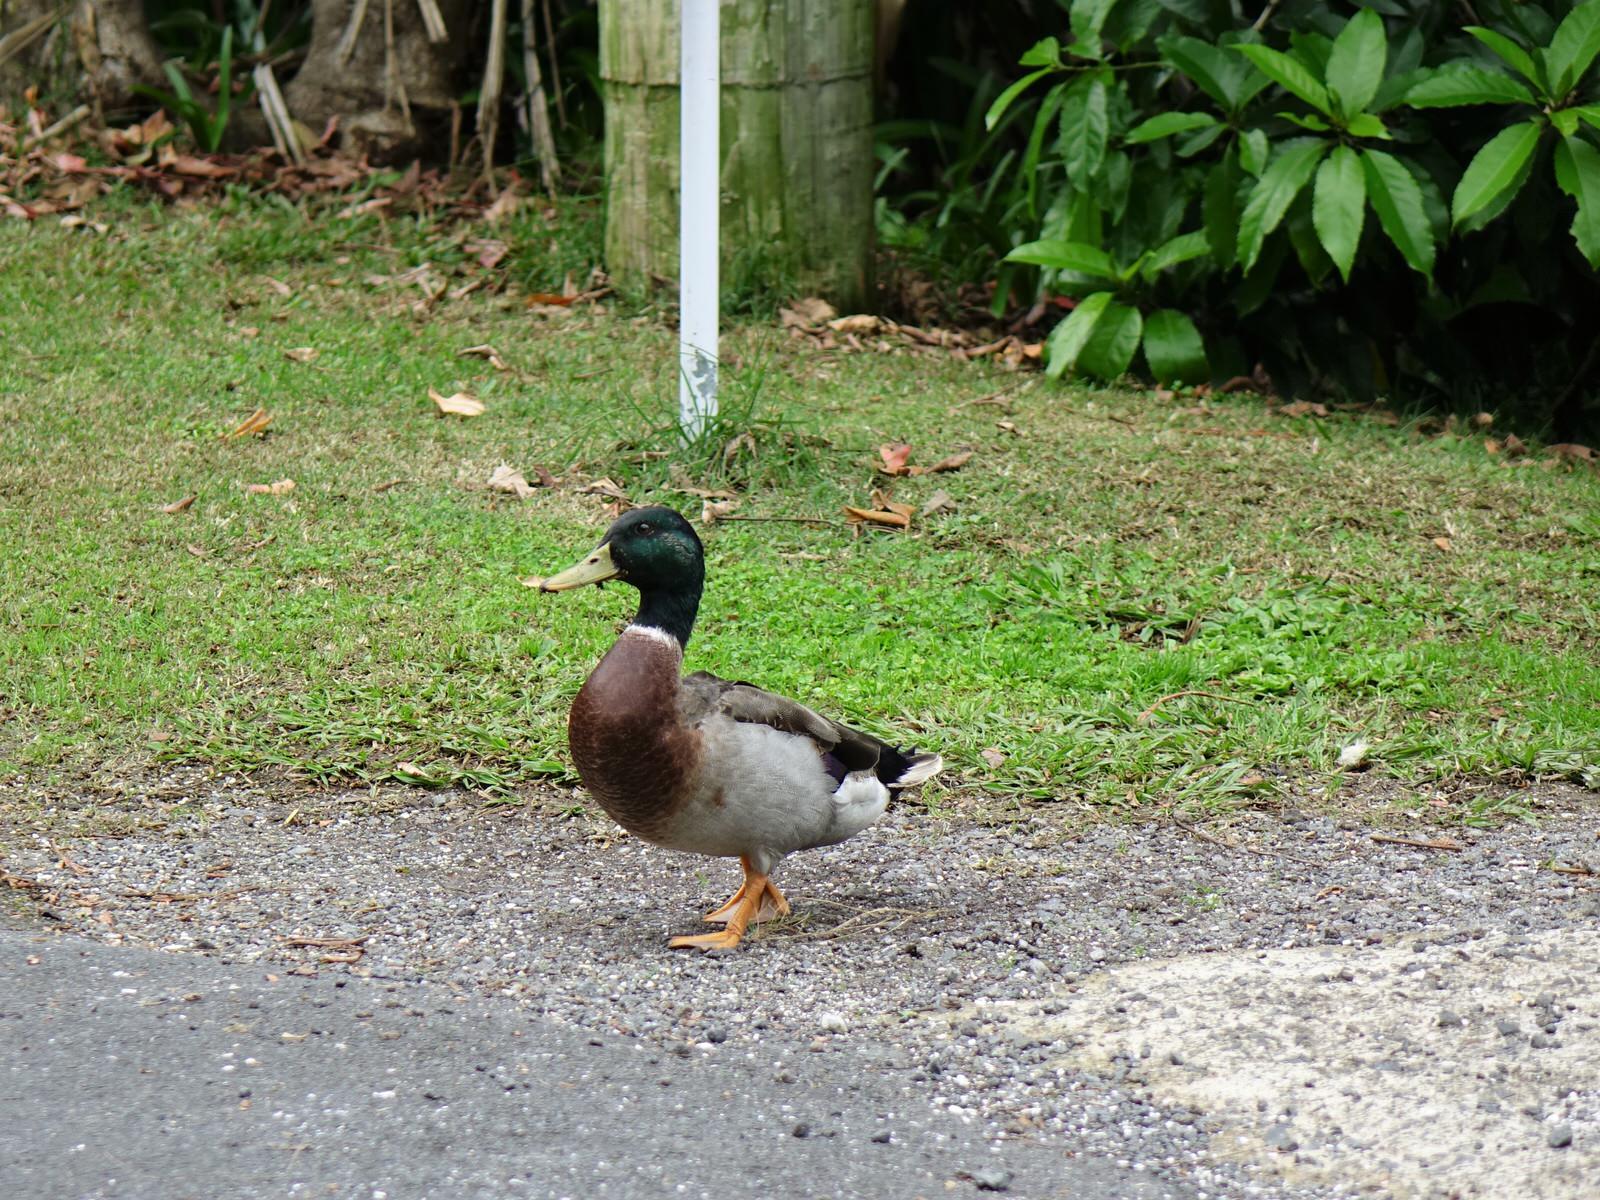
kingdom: Animalia
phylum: Chordata
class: Aves
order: Anseriformes
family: Anatidae
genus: Anas
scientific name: Anas platyrhynchos
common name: Mallard
